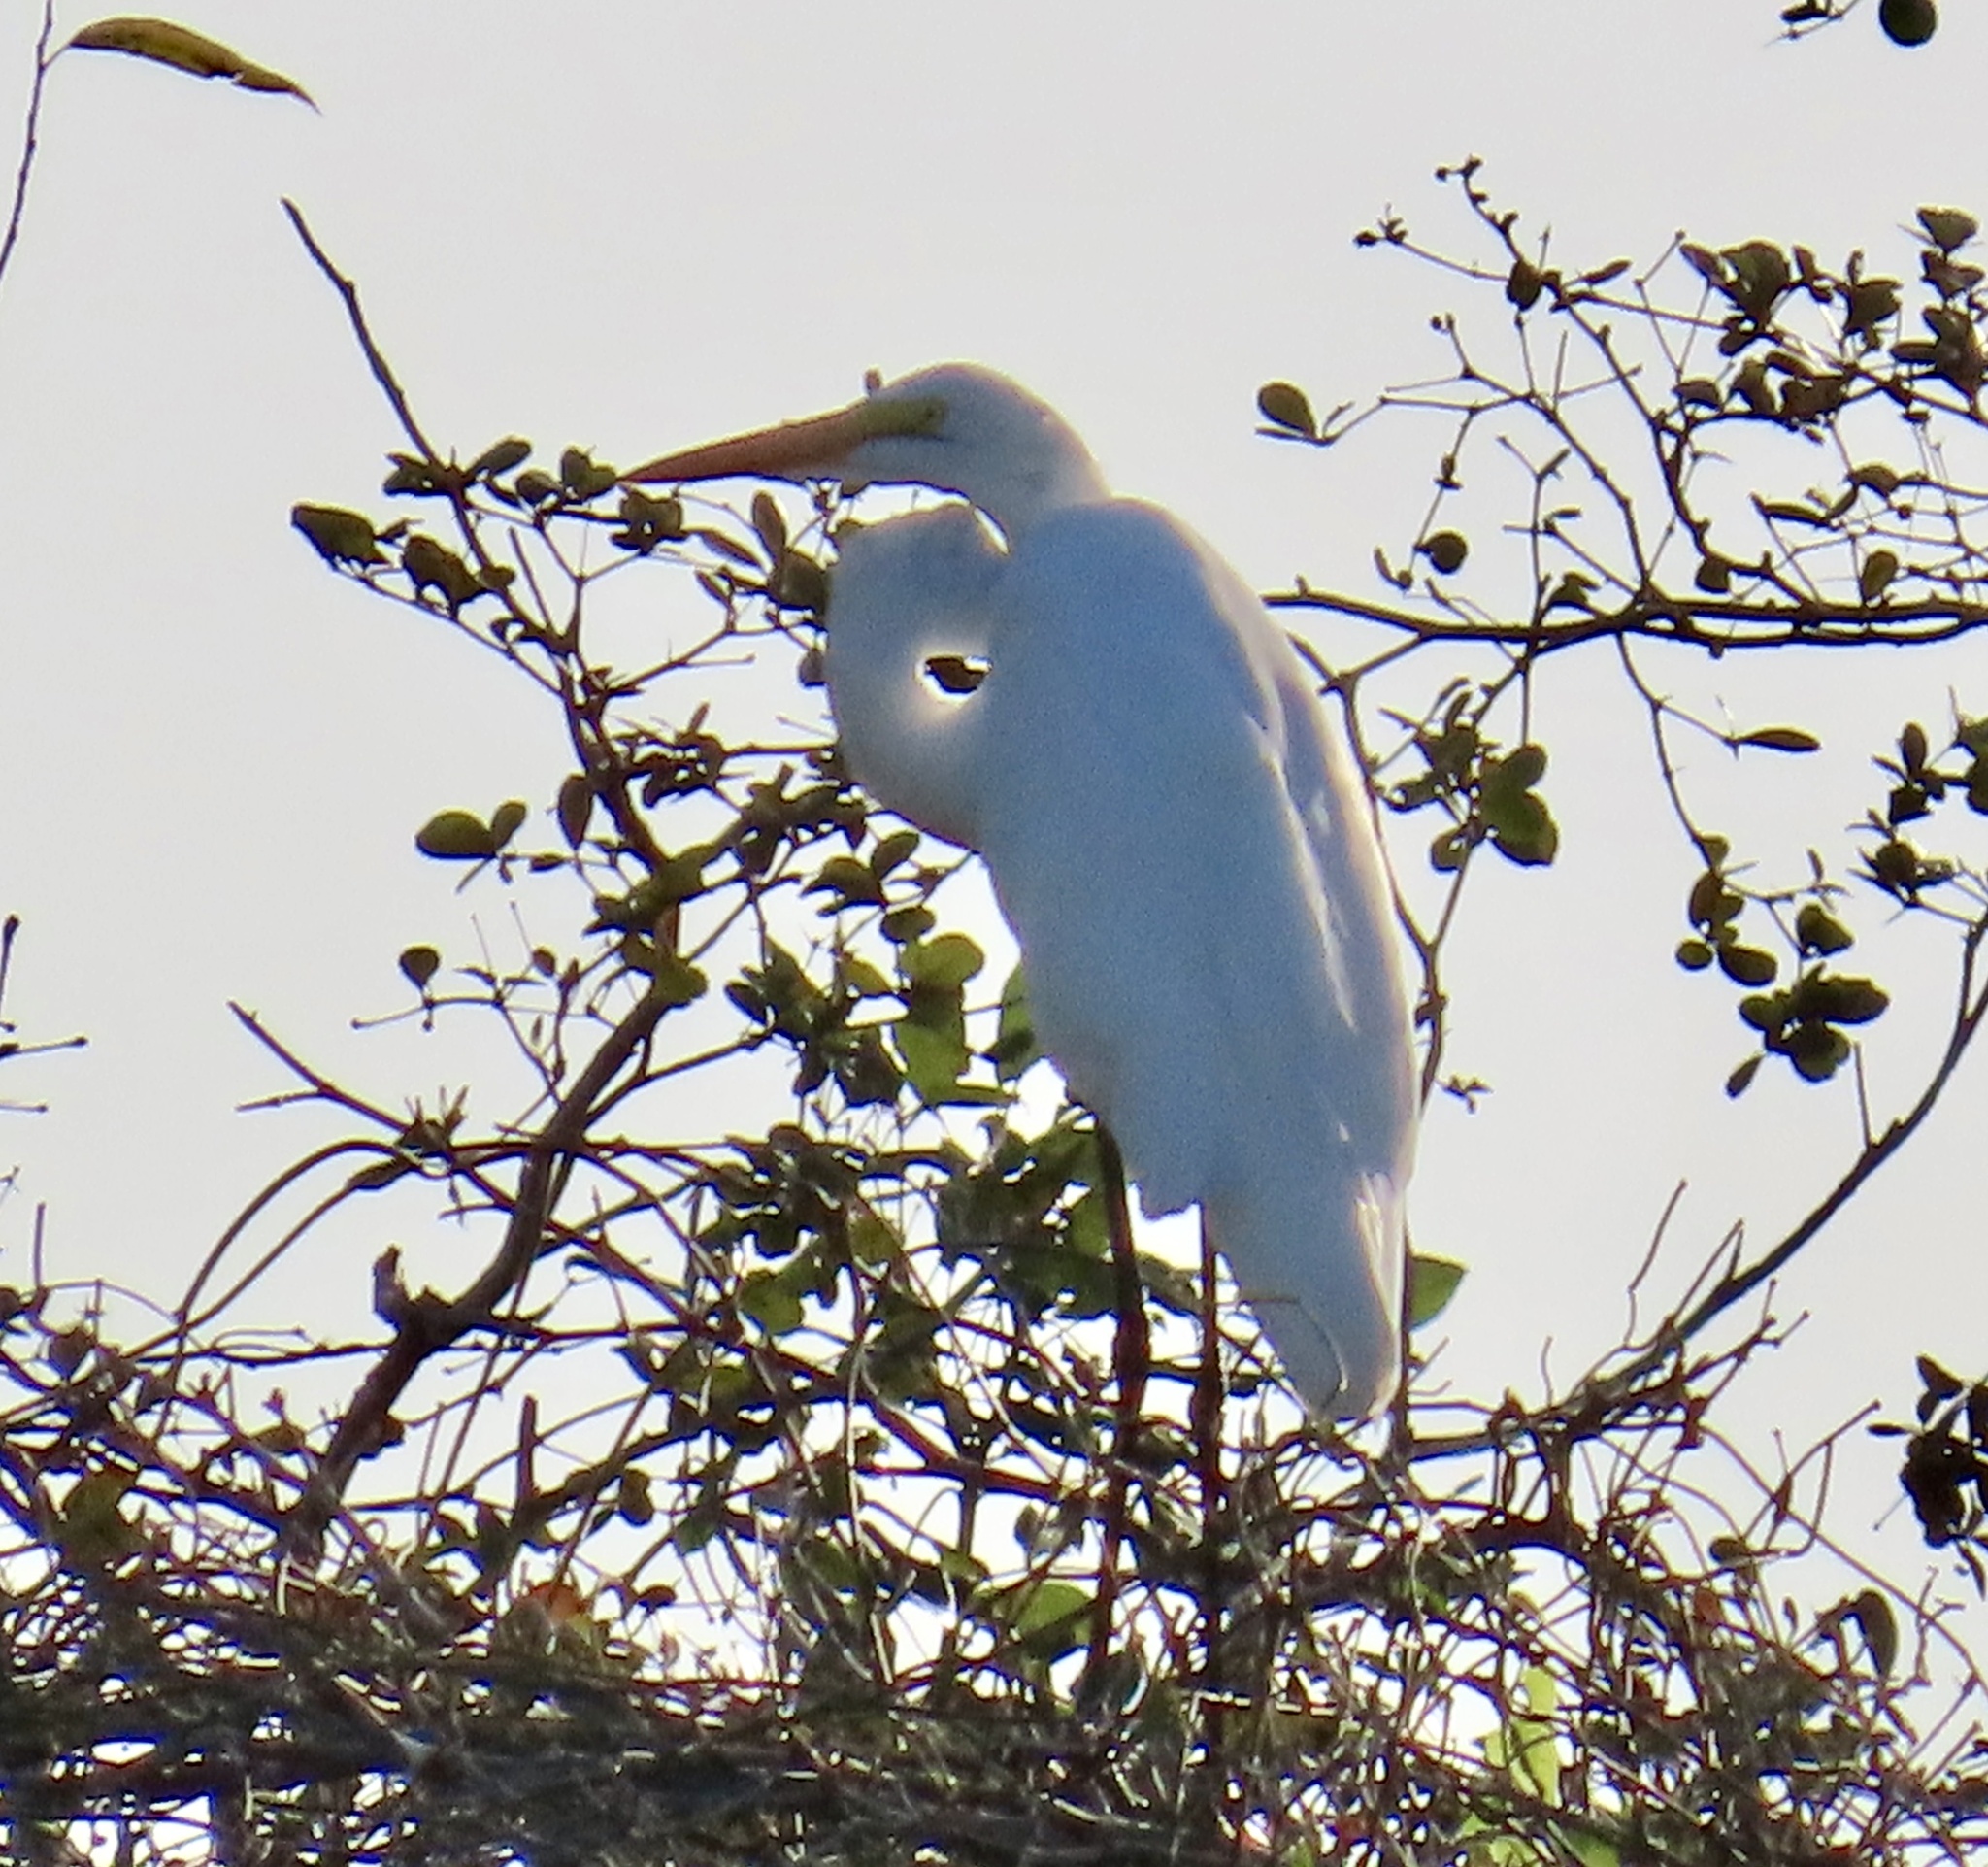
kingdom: Animalia
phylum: Chordata
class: Aves
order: Pelecaniformes
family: Ardeidae
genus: Ardea
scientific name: Ardea alba
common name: Great egret
